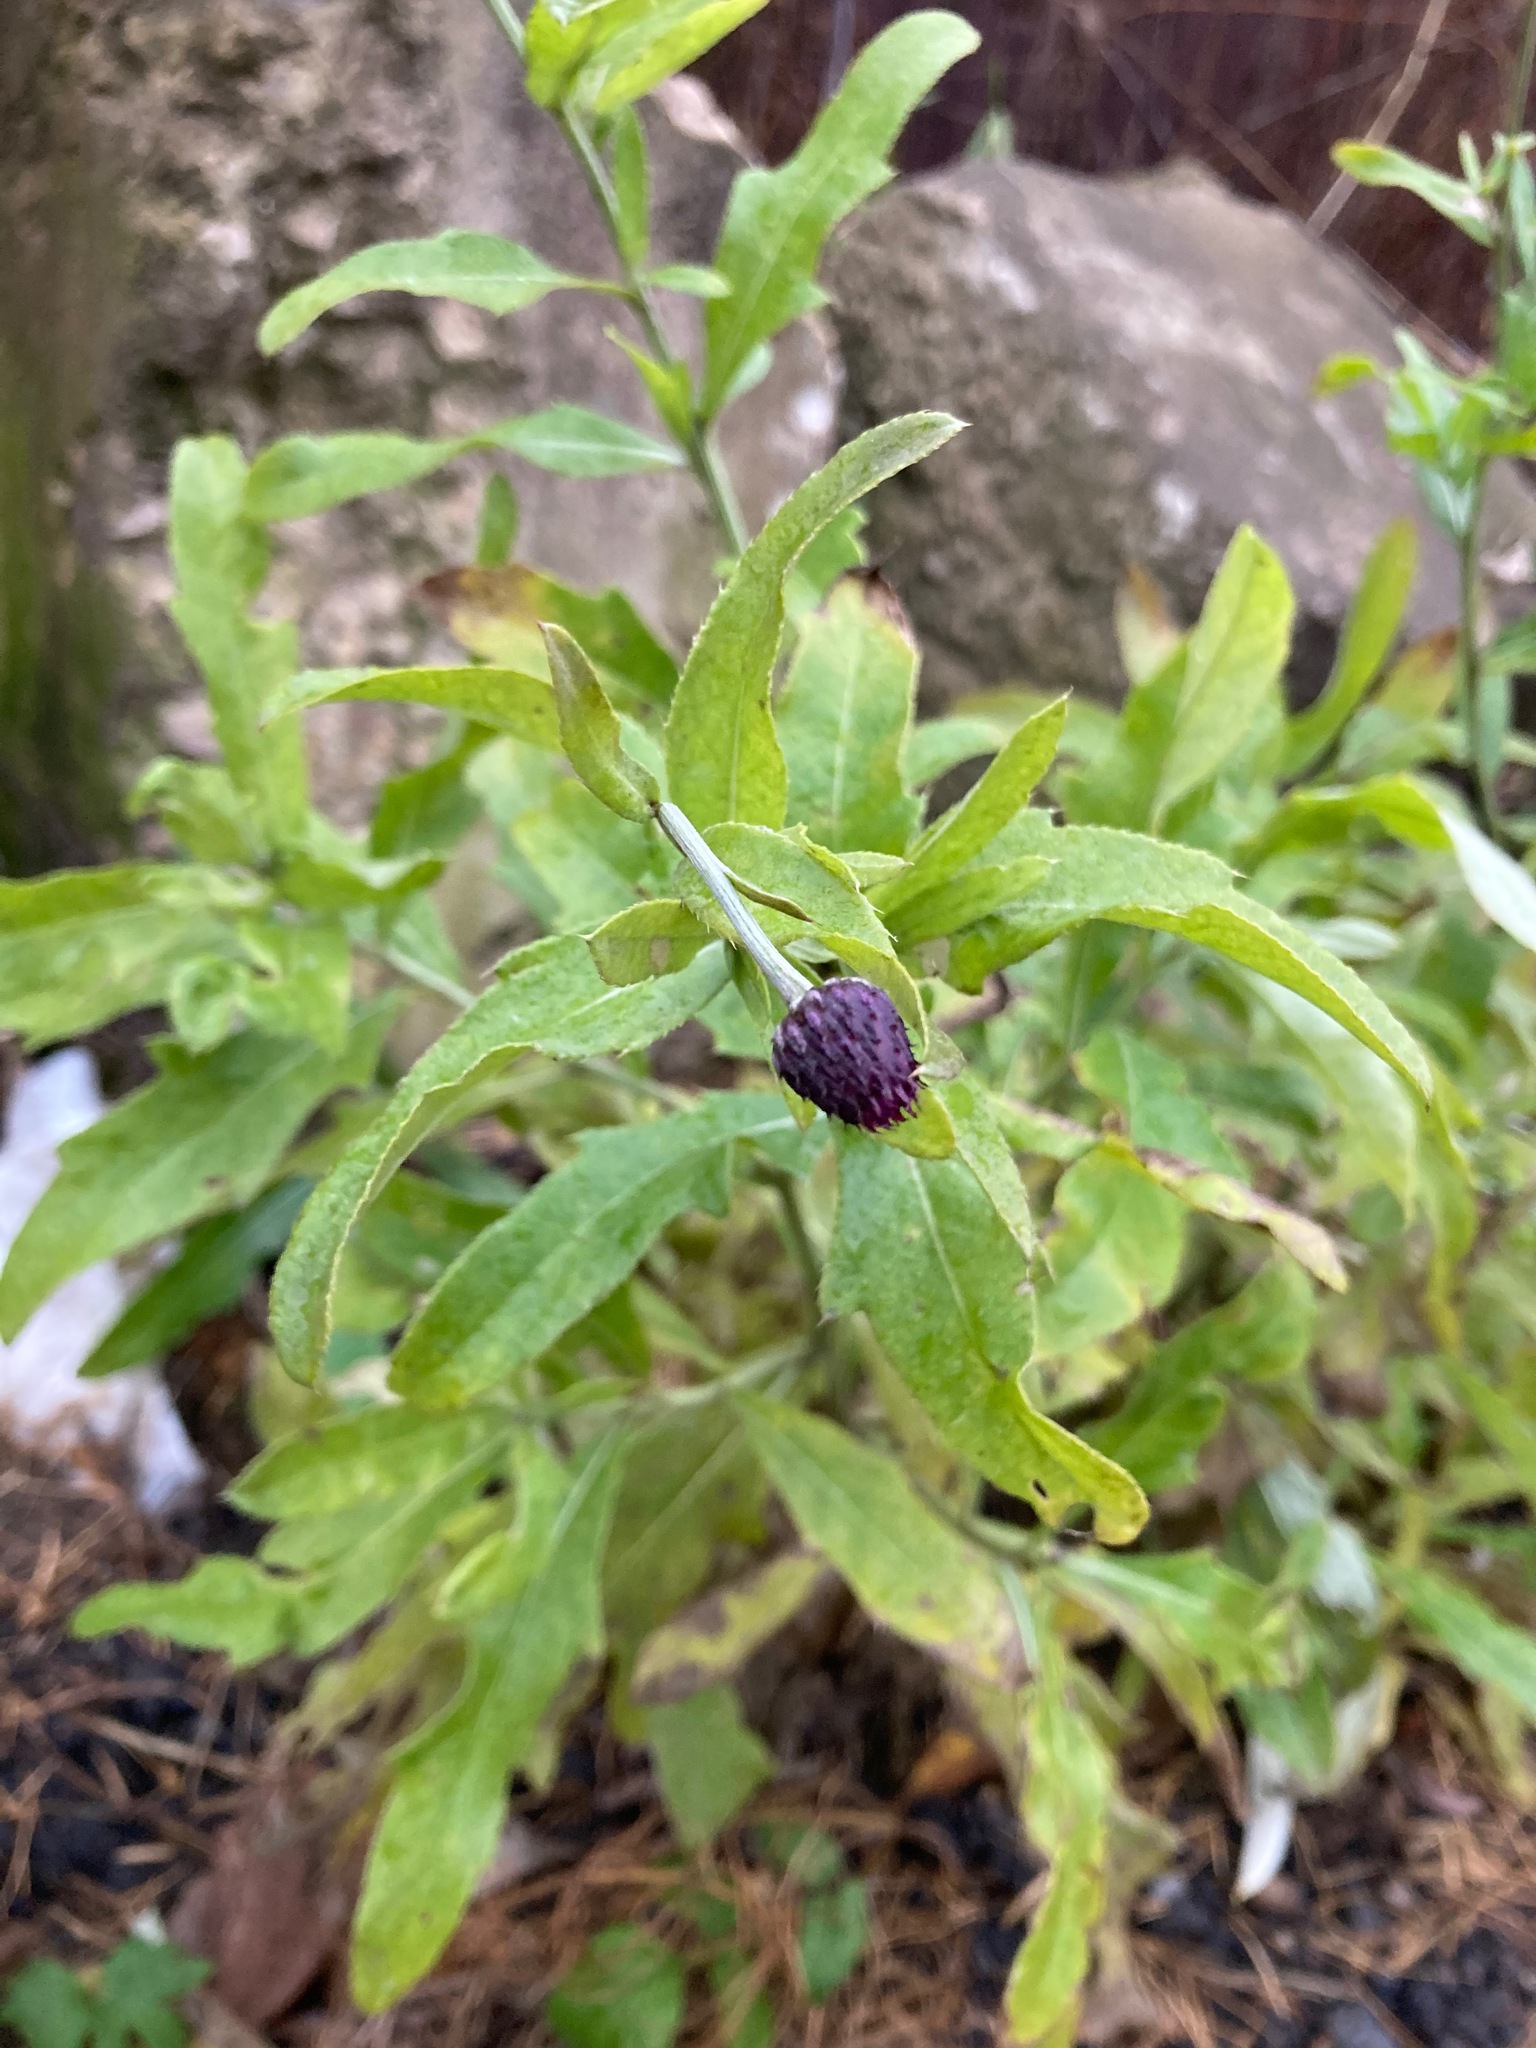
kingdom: Plantae
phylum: Tracheophyta
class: Magnoliopsida
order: Asterales
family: Asteraceae
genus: Cirsium
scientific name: Cirsium arvense
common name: Creeping thistle
